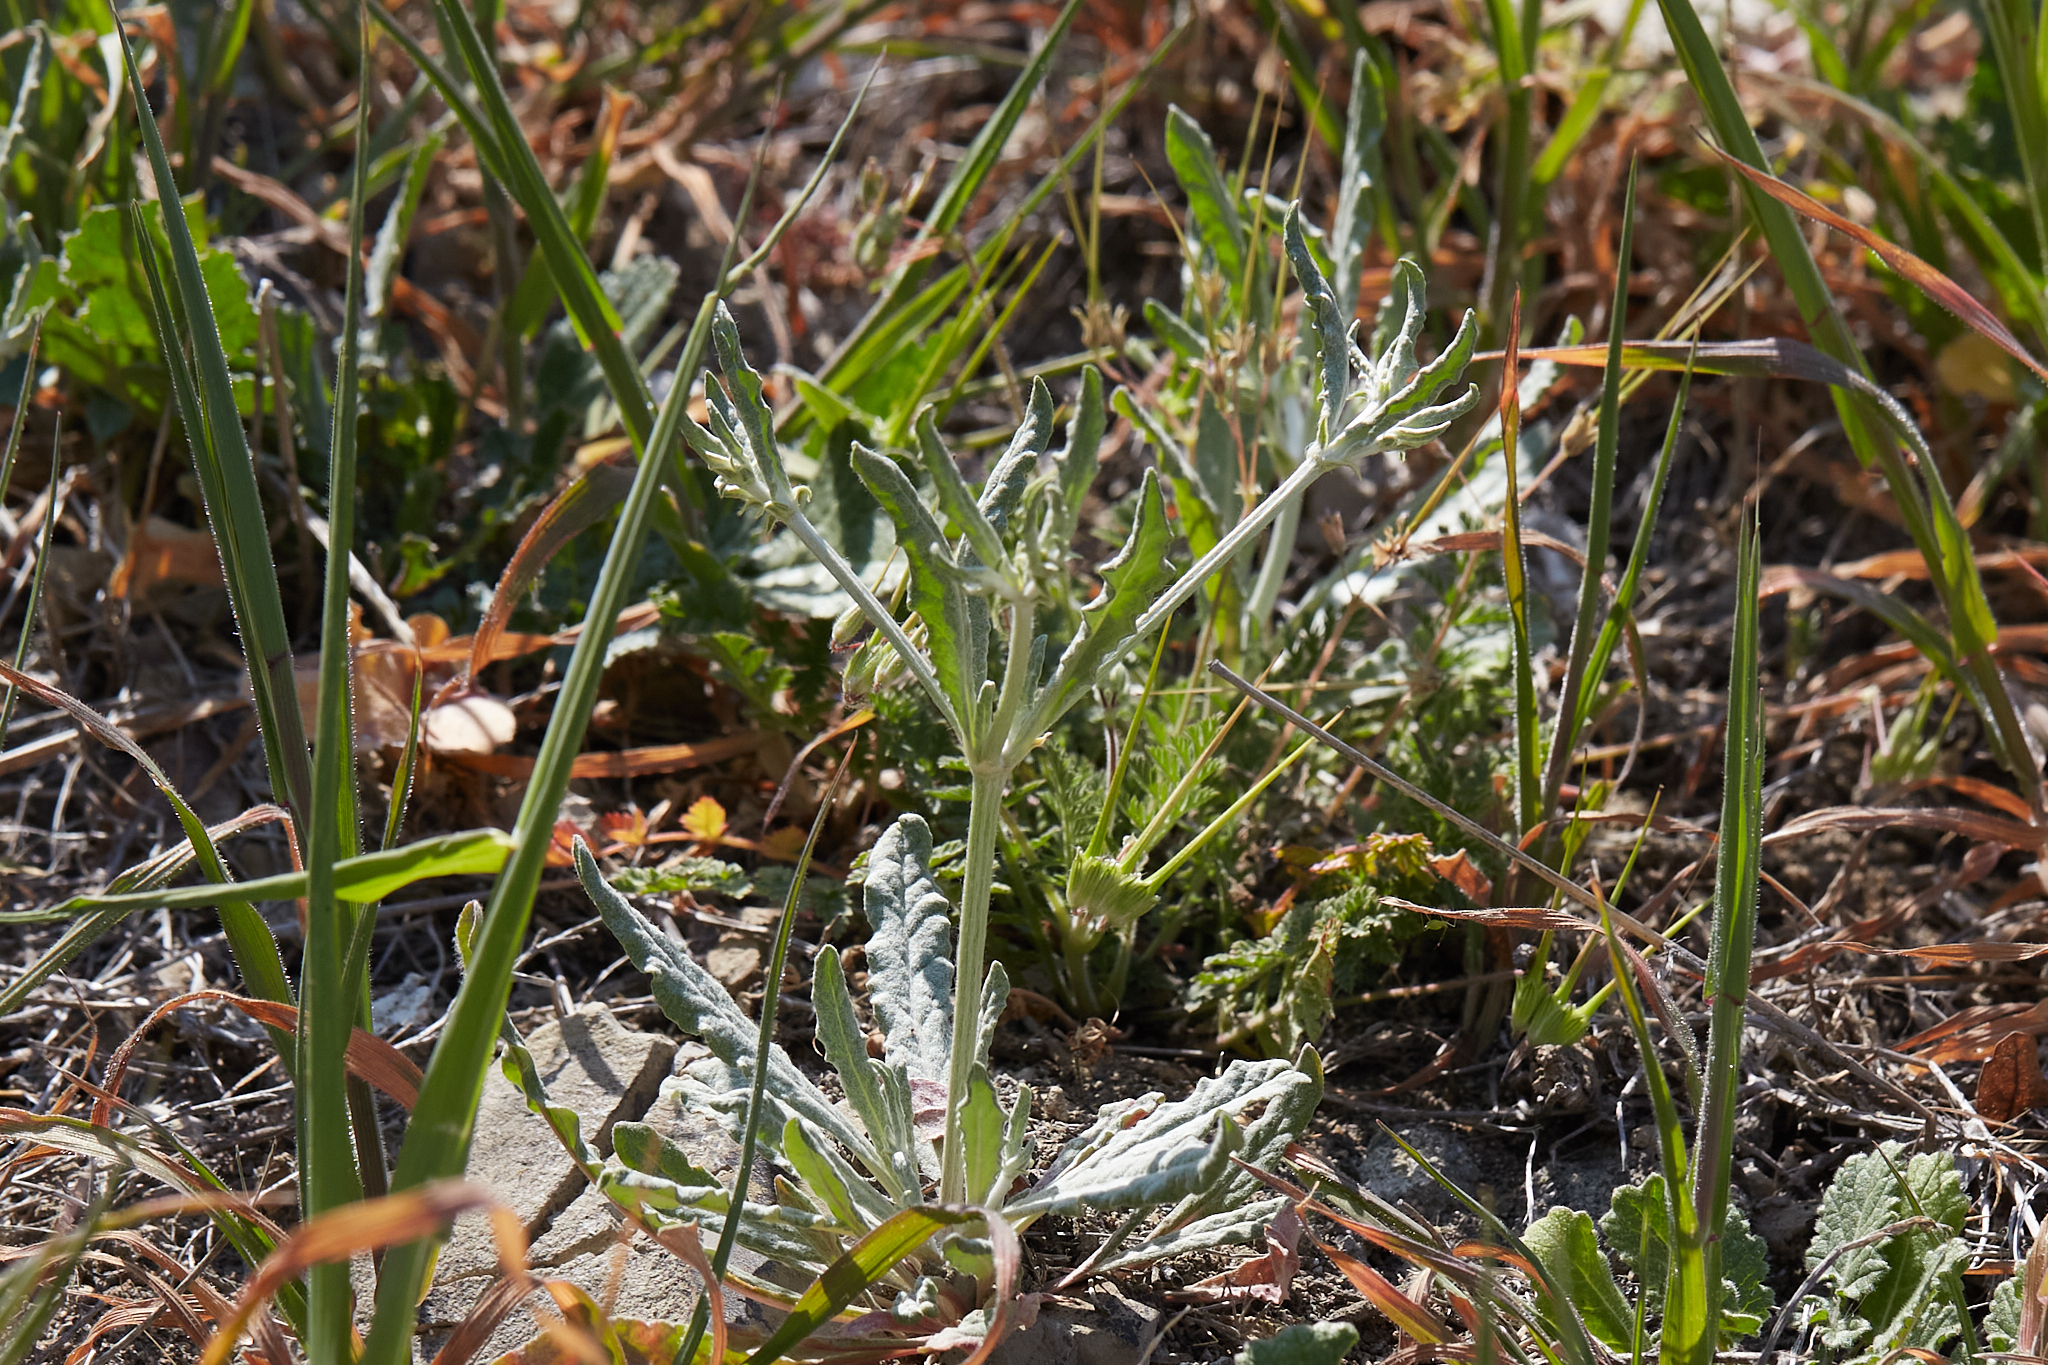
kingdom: Plantae
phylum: Tracheophyta
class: Magnoliopsida
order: Caryophyllales
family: Polygonaceae
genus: Eriogonum
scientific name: Eriogonum angulosum
